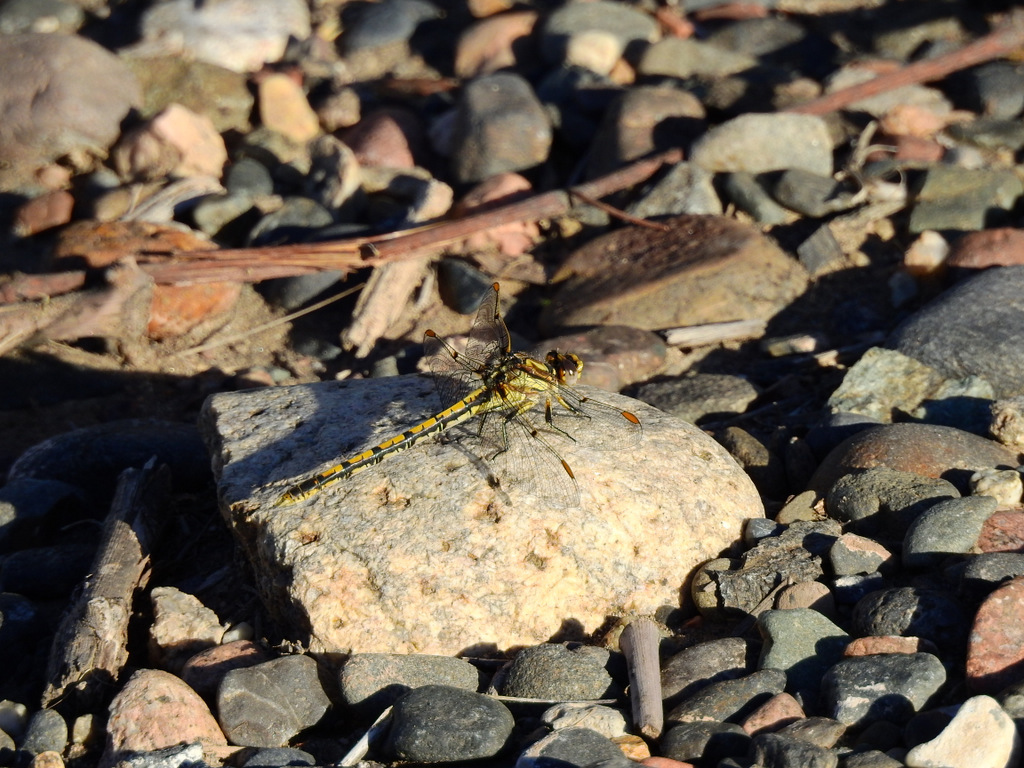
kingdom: Animalia
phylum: Arthropoda
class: Insecta
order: Odonata
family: Gomphidae
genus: Progomphus
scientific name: Progomphus joergenseni
